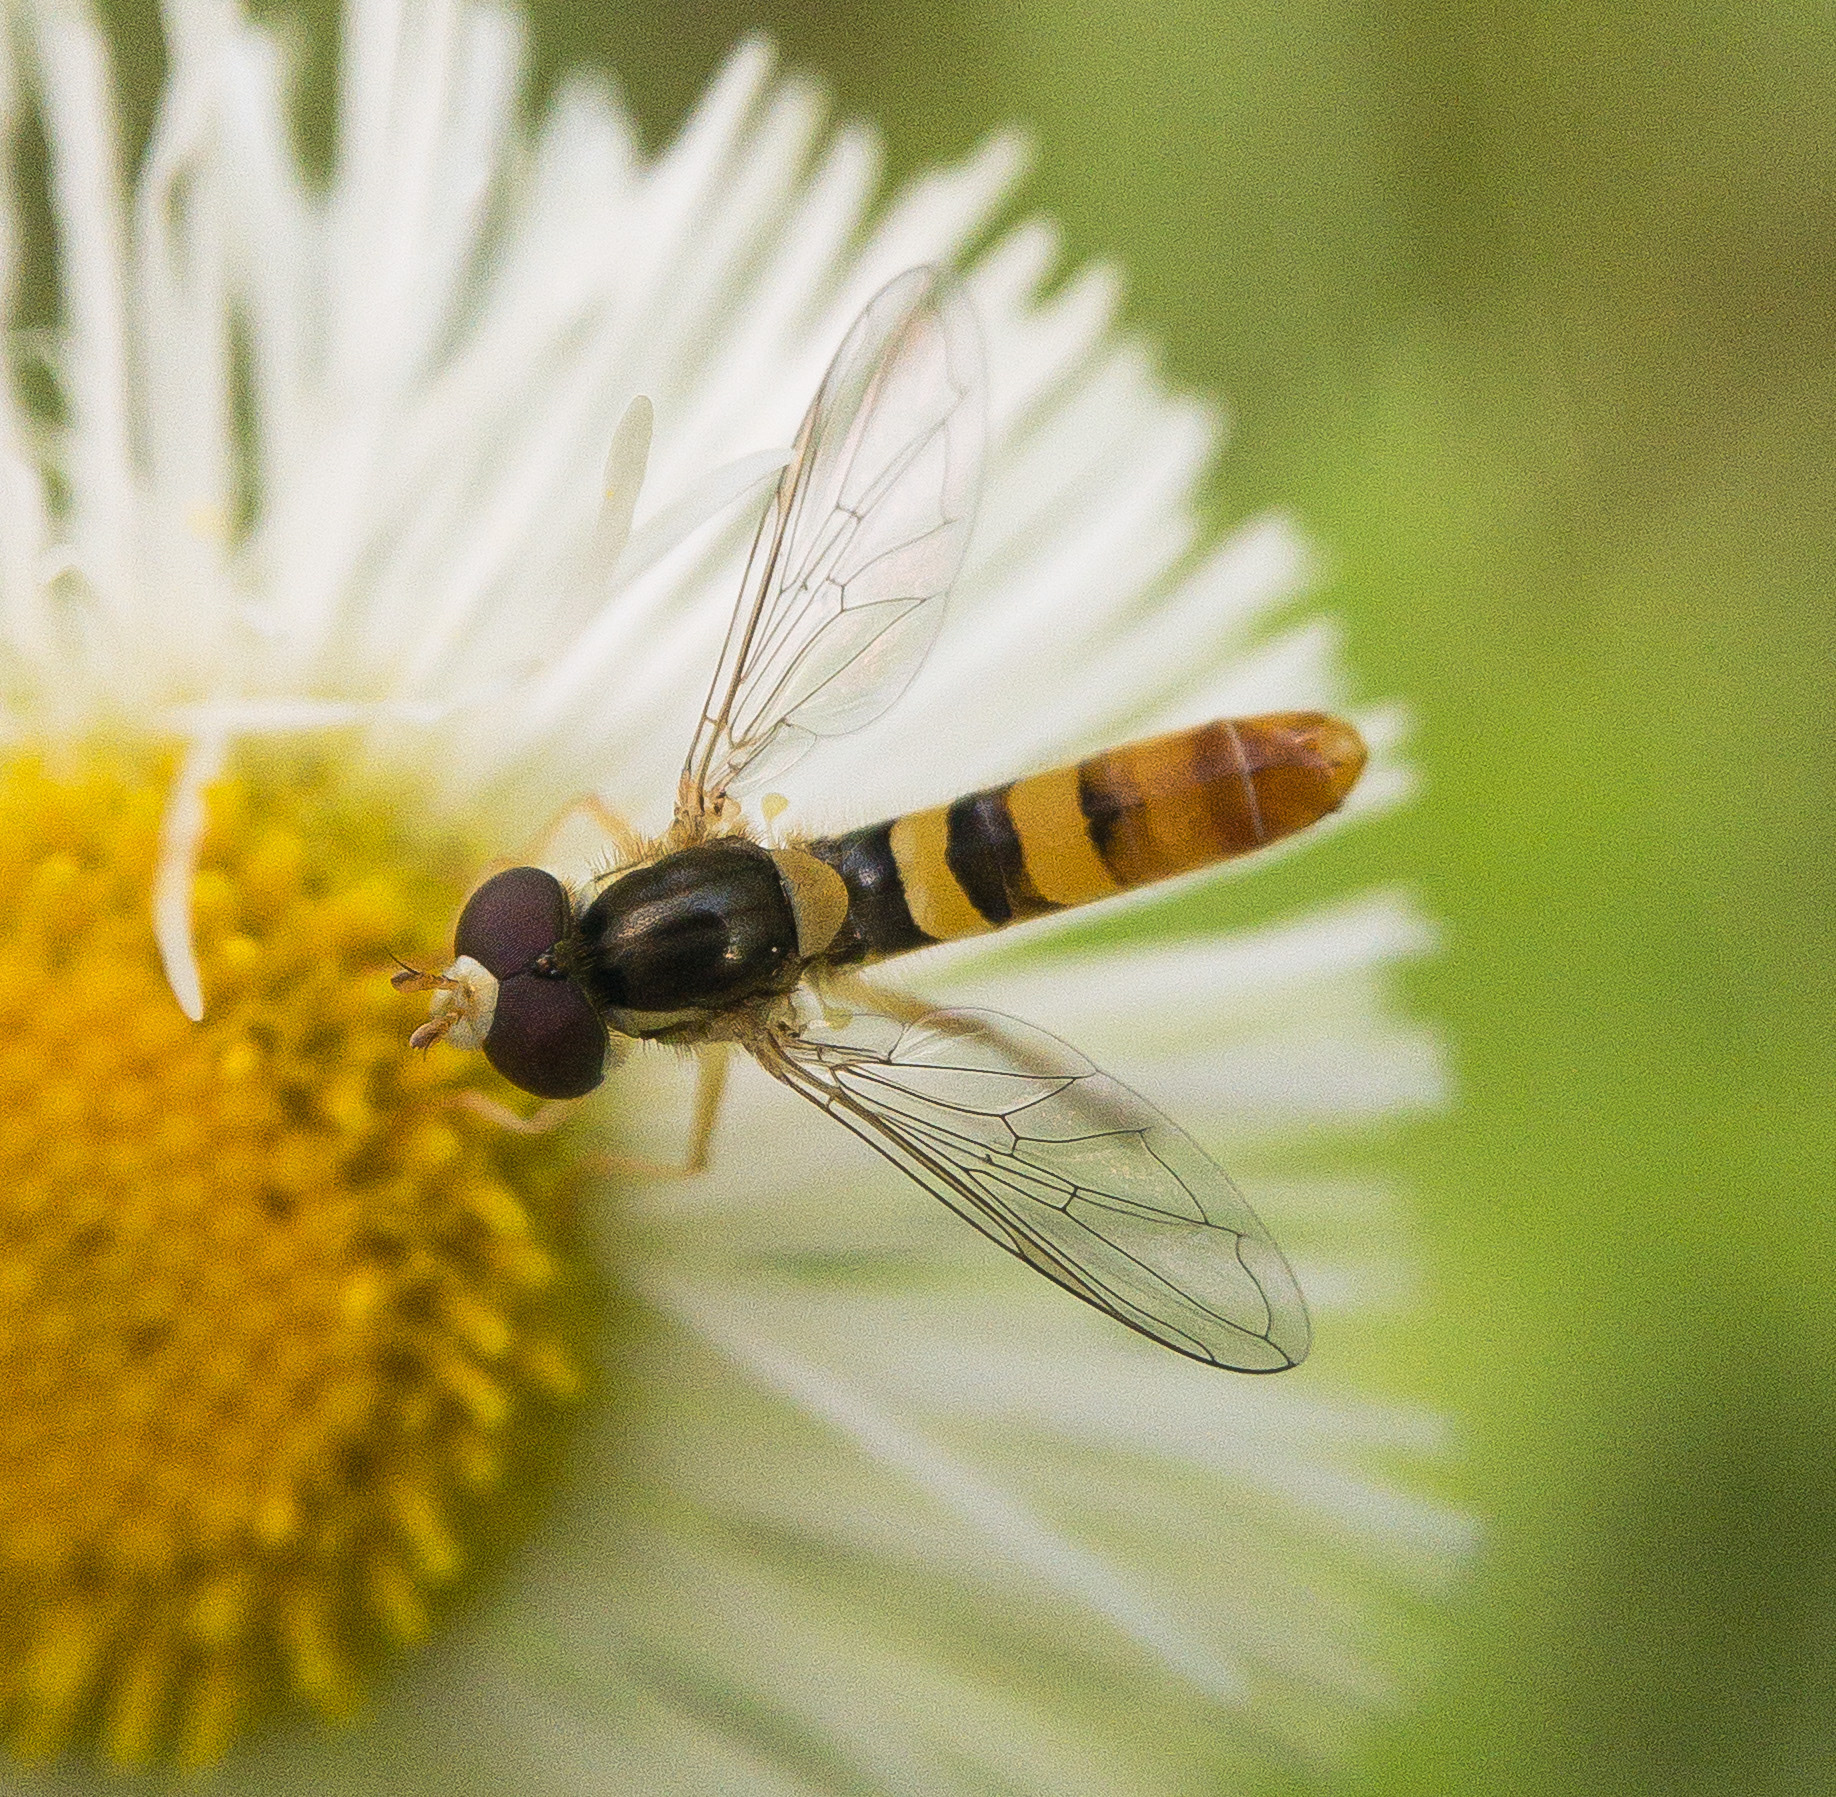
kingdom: Animalia
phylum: Arthropoda
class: Insecta
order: Diptera
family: Syrphidae
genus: Sphaerophoria
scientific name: Sphaerophoria contigua
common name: Tufted globetail
